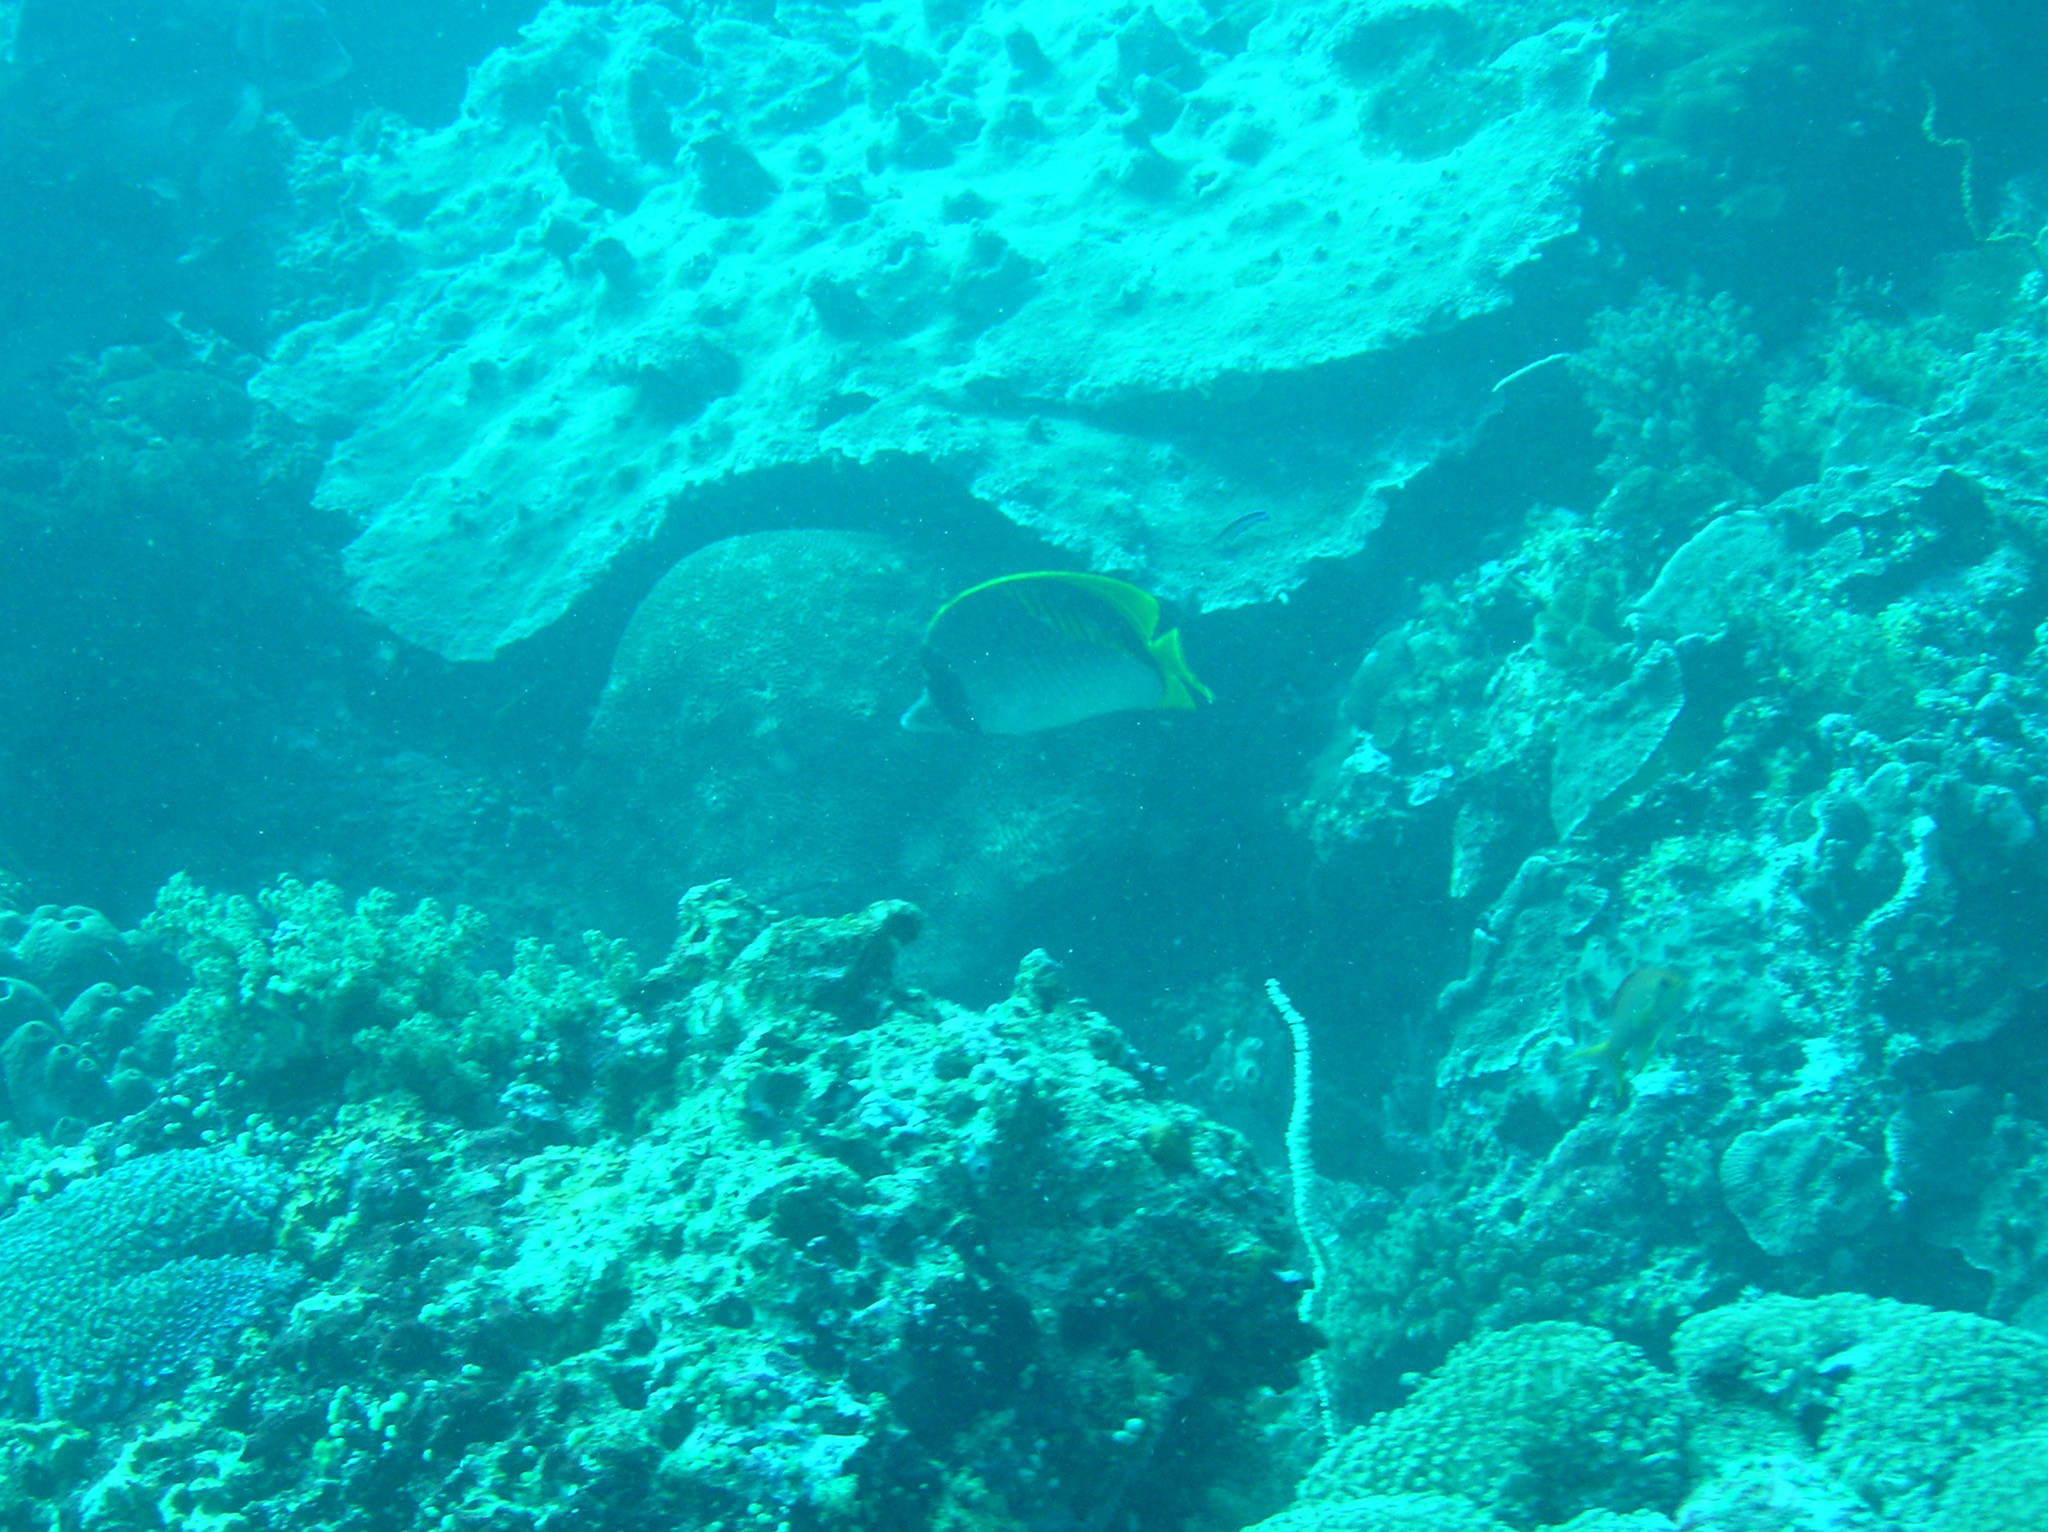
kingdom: Animalia
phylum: Chordata
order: Perciformes
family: Chaetodontidae
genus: Chaetodon
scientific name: Chaetodon lineolatus
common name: Lined butterflyfish
